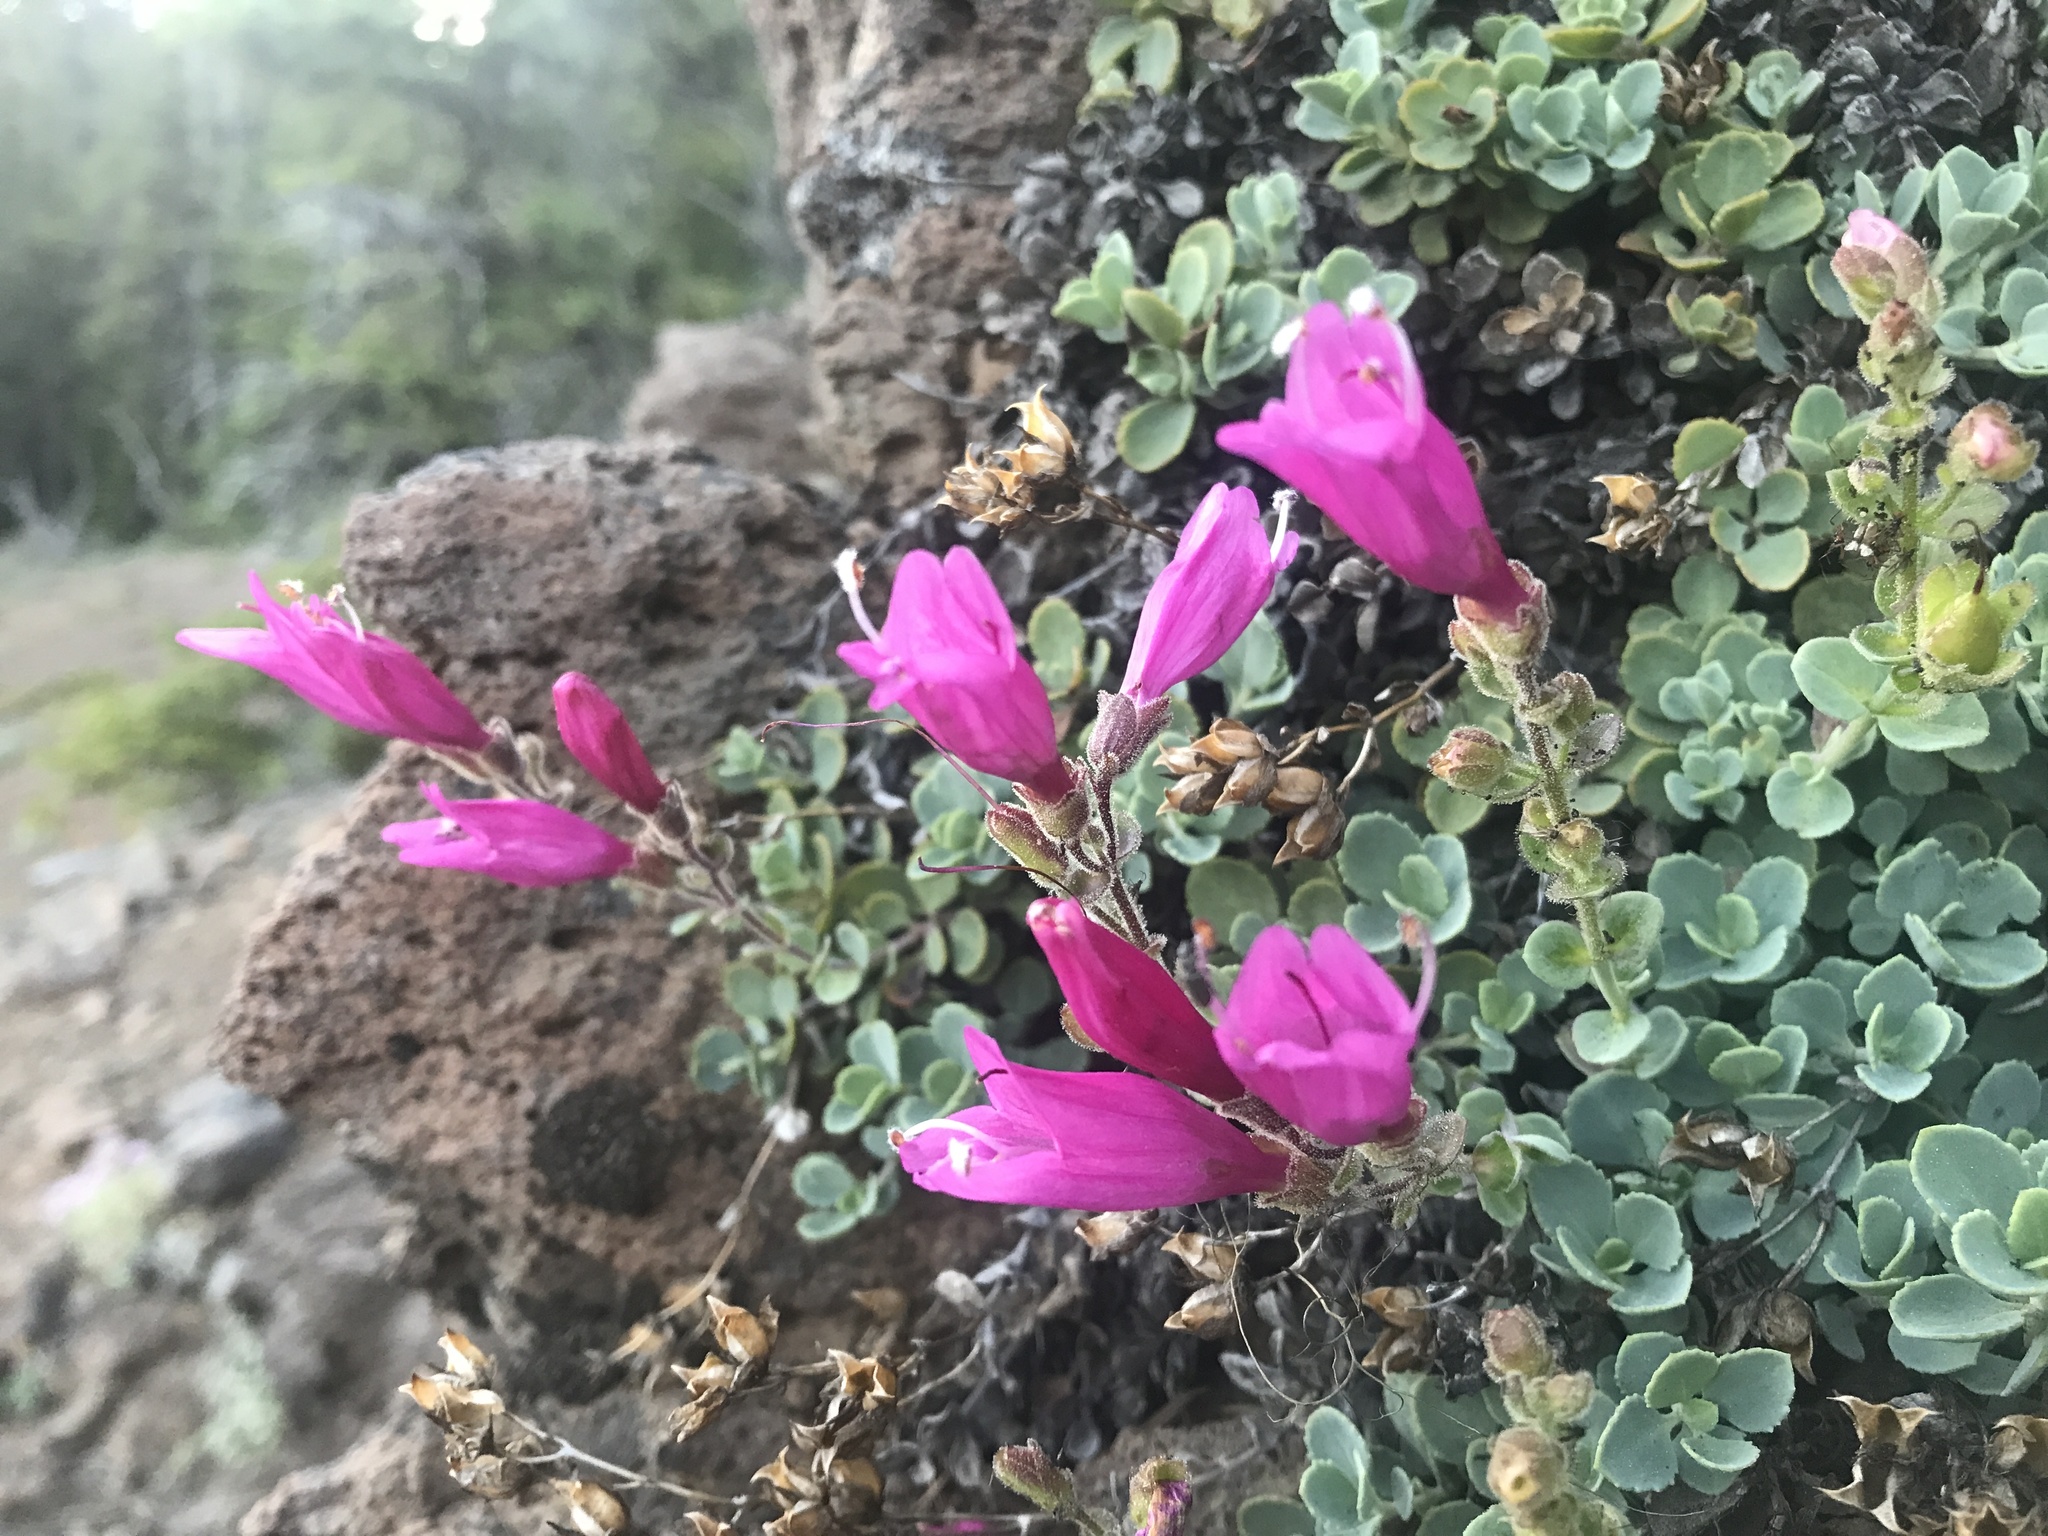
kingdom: Plantae
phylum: Tracheophyta
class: Magnoliopsida
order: Lamiales
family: Plantaginaceae
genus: Penstemon
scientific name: Penstemon rupicola
